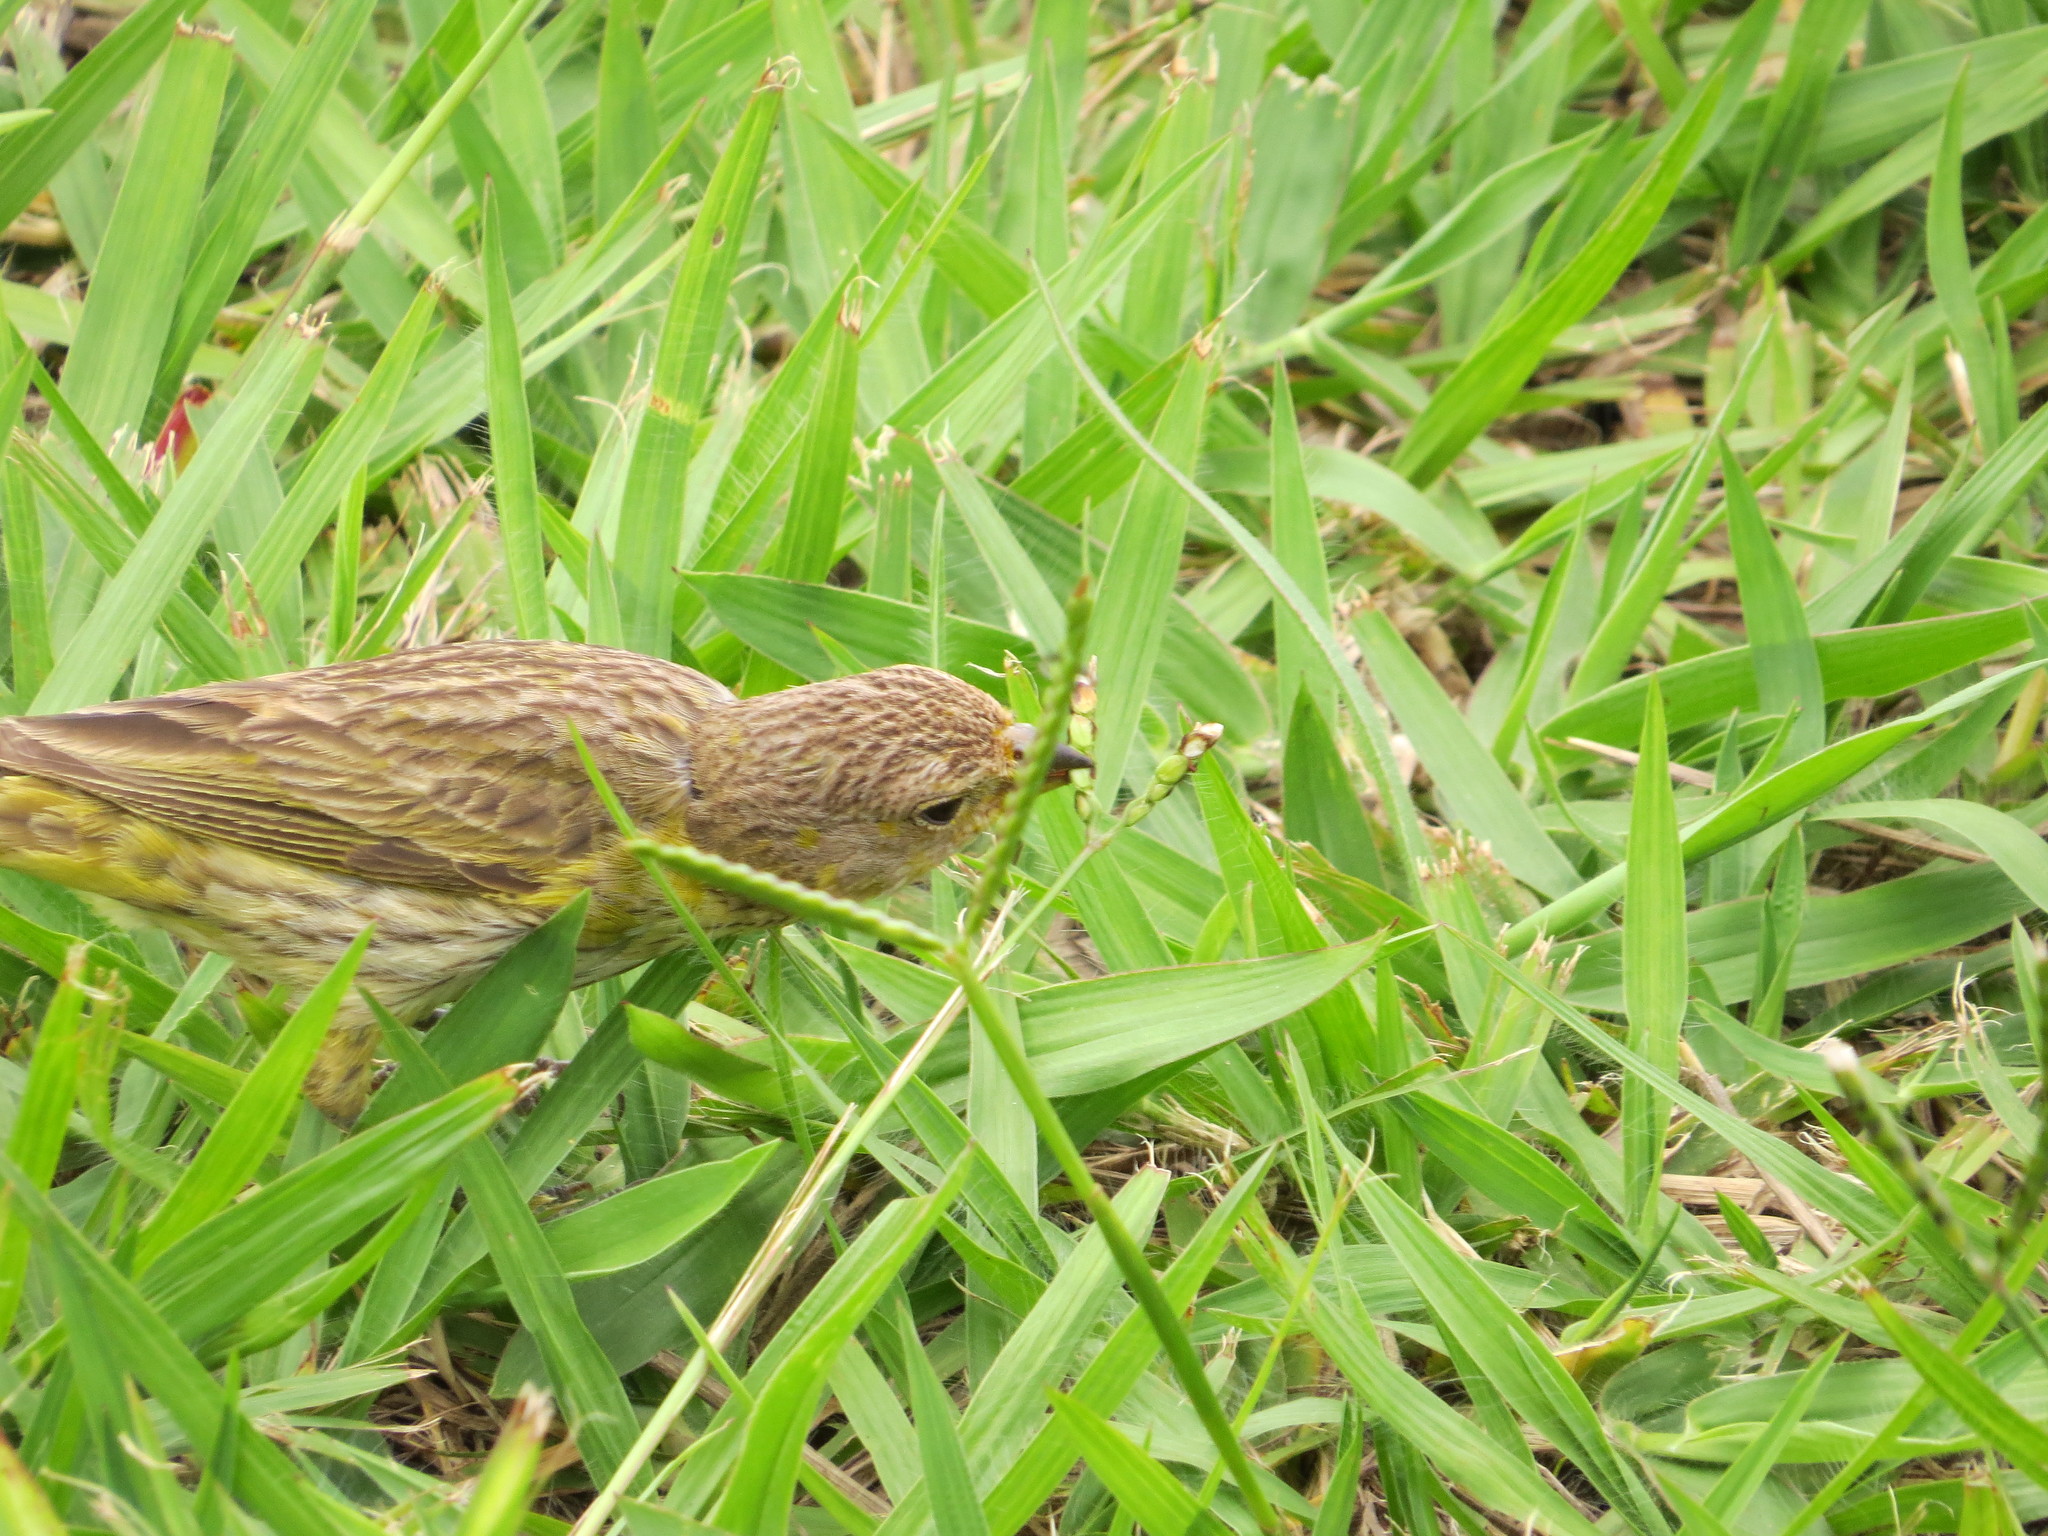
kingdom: Animalia
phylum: Chordata
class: Aves
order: Passeriformes
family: Thraupidae
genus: Sicalis
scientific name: Sicalis flaveola
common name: Saffron finch
